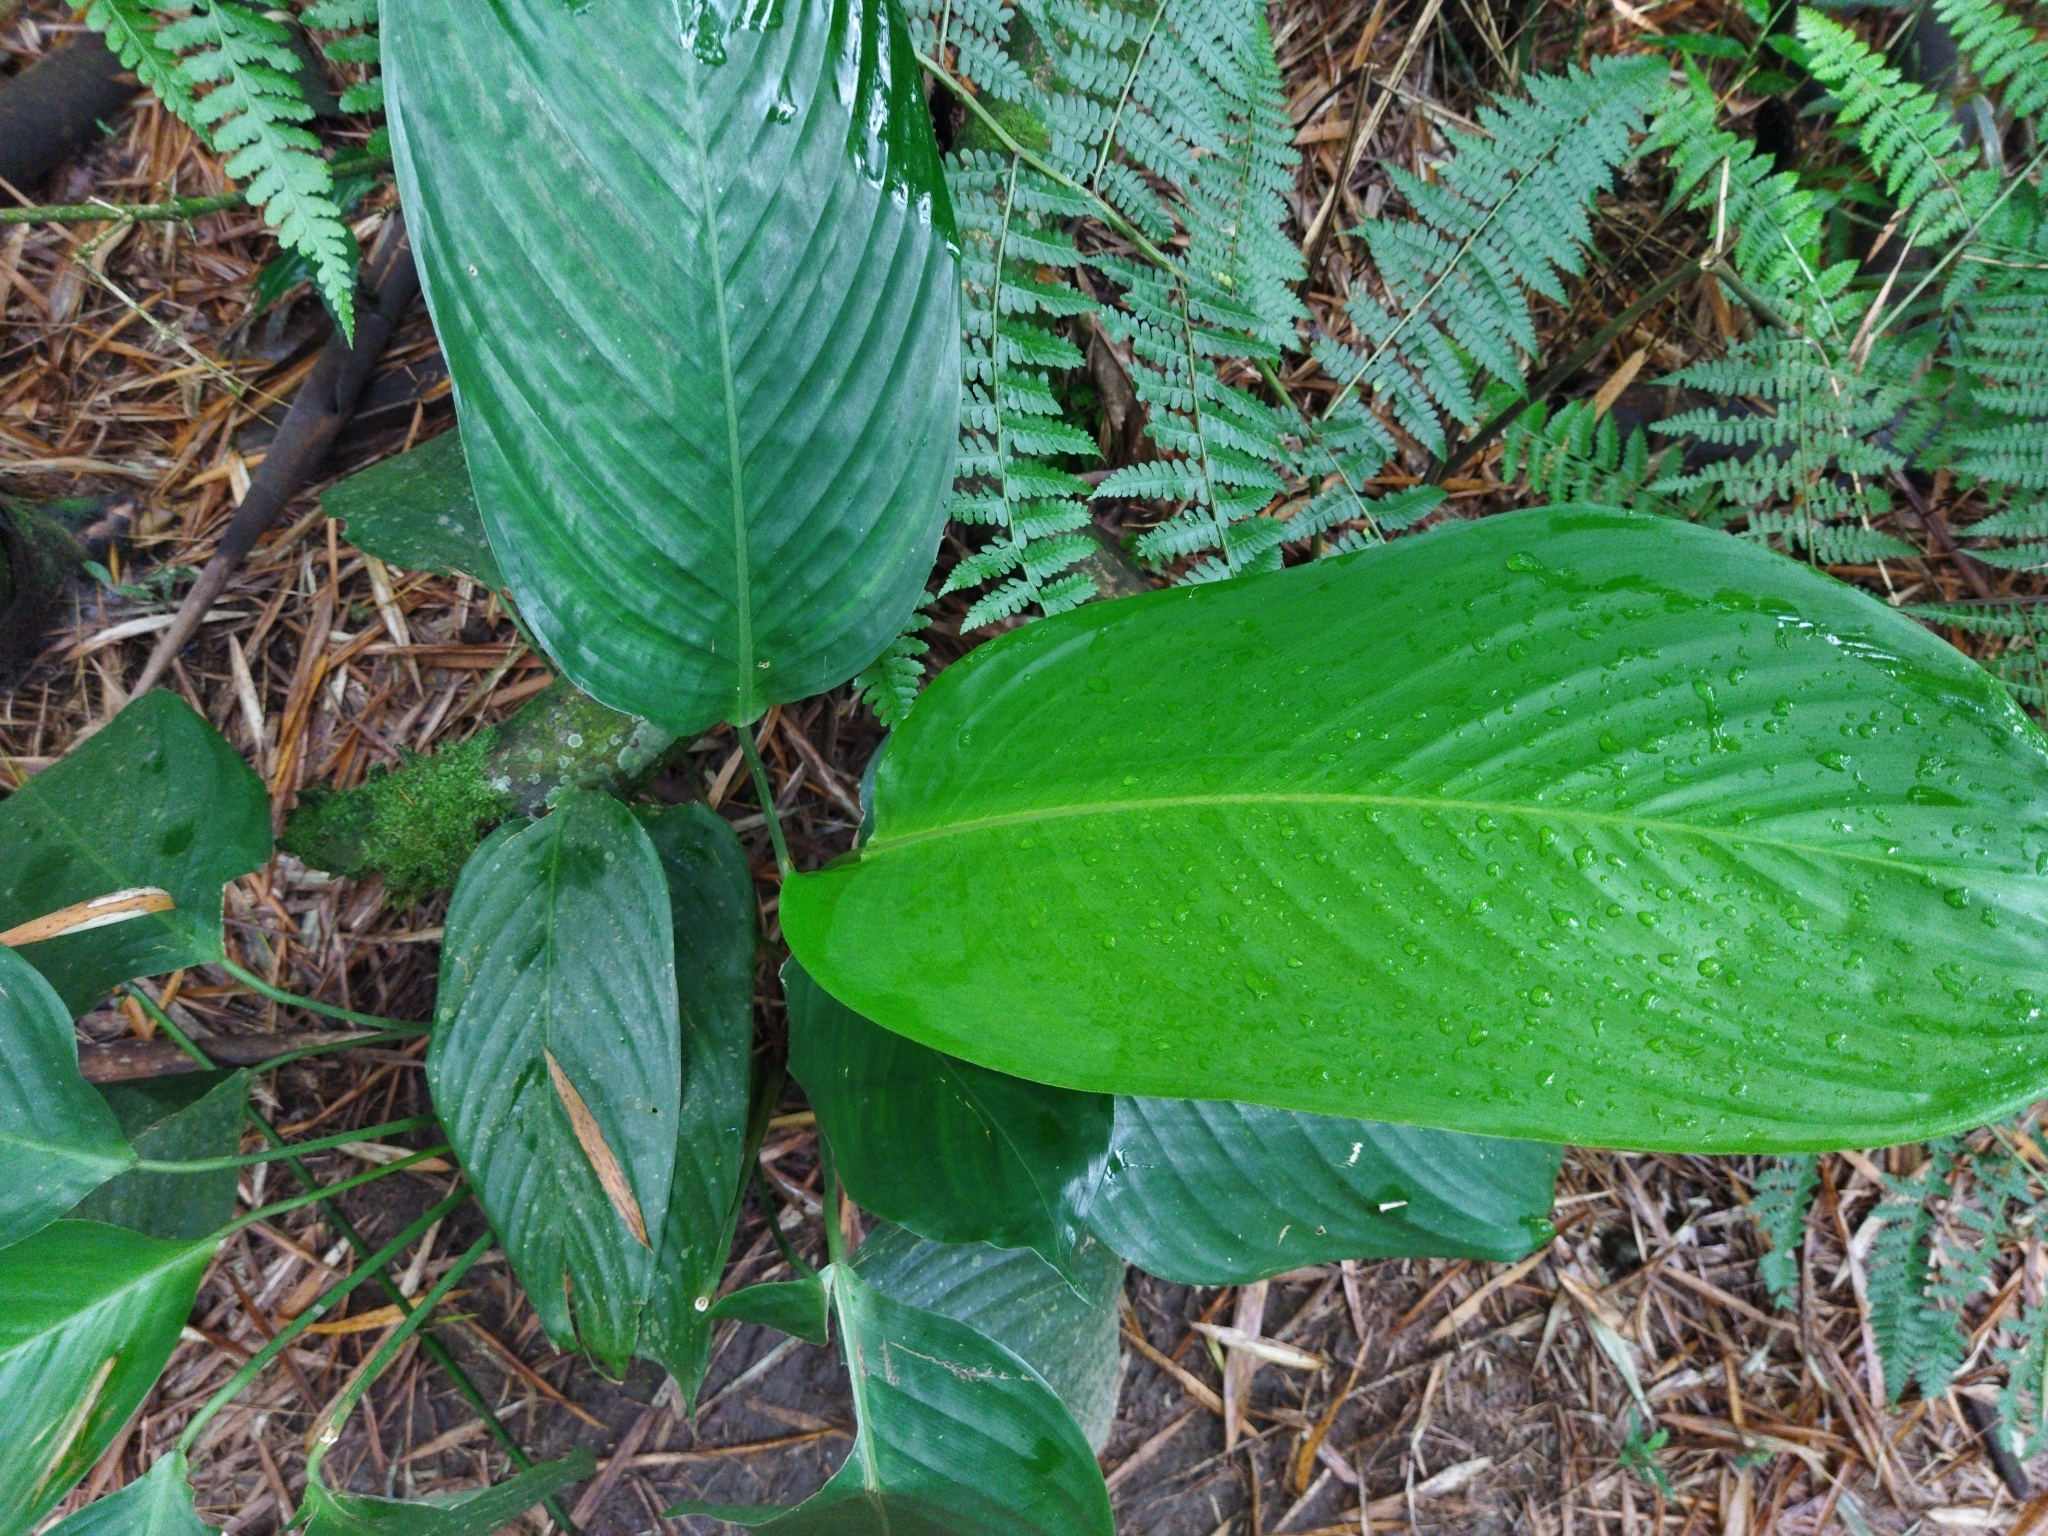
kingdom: Plantae
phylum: Tracheophyta
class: Liliopsida
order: Zingiberales
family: Marantaceae
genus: Stromanthe
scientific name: Stromanthe stromanthoides
